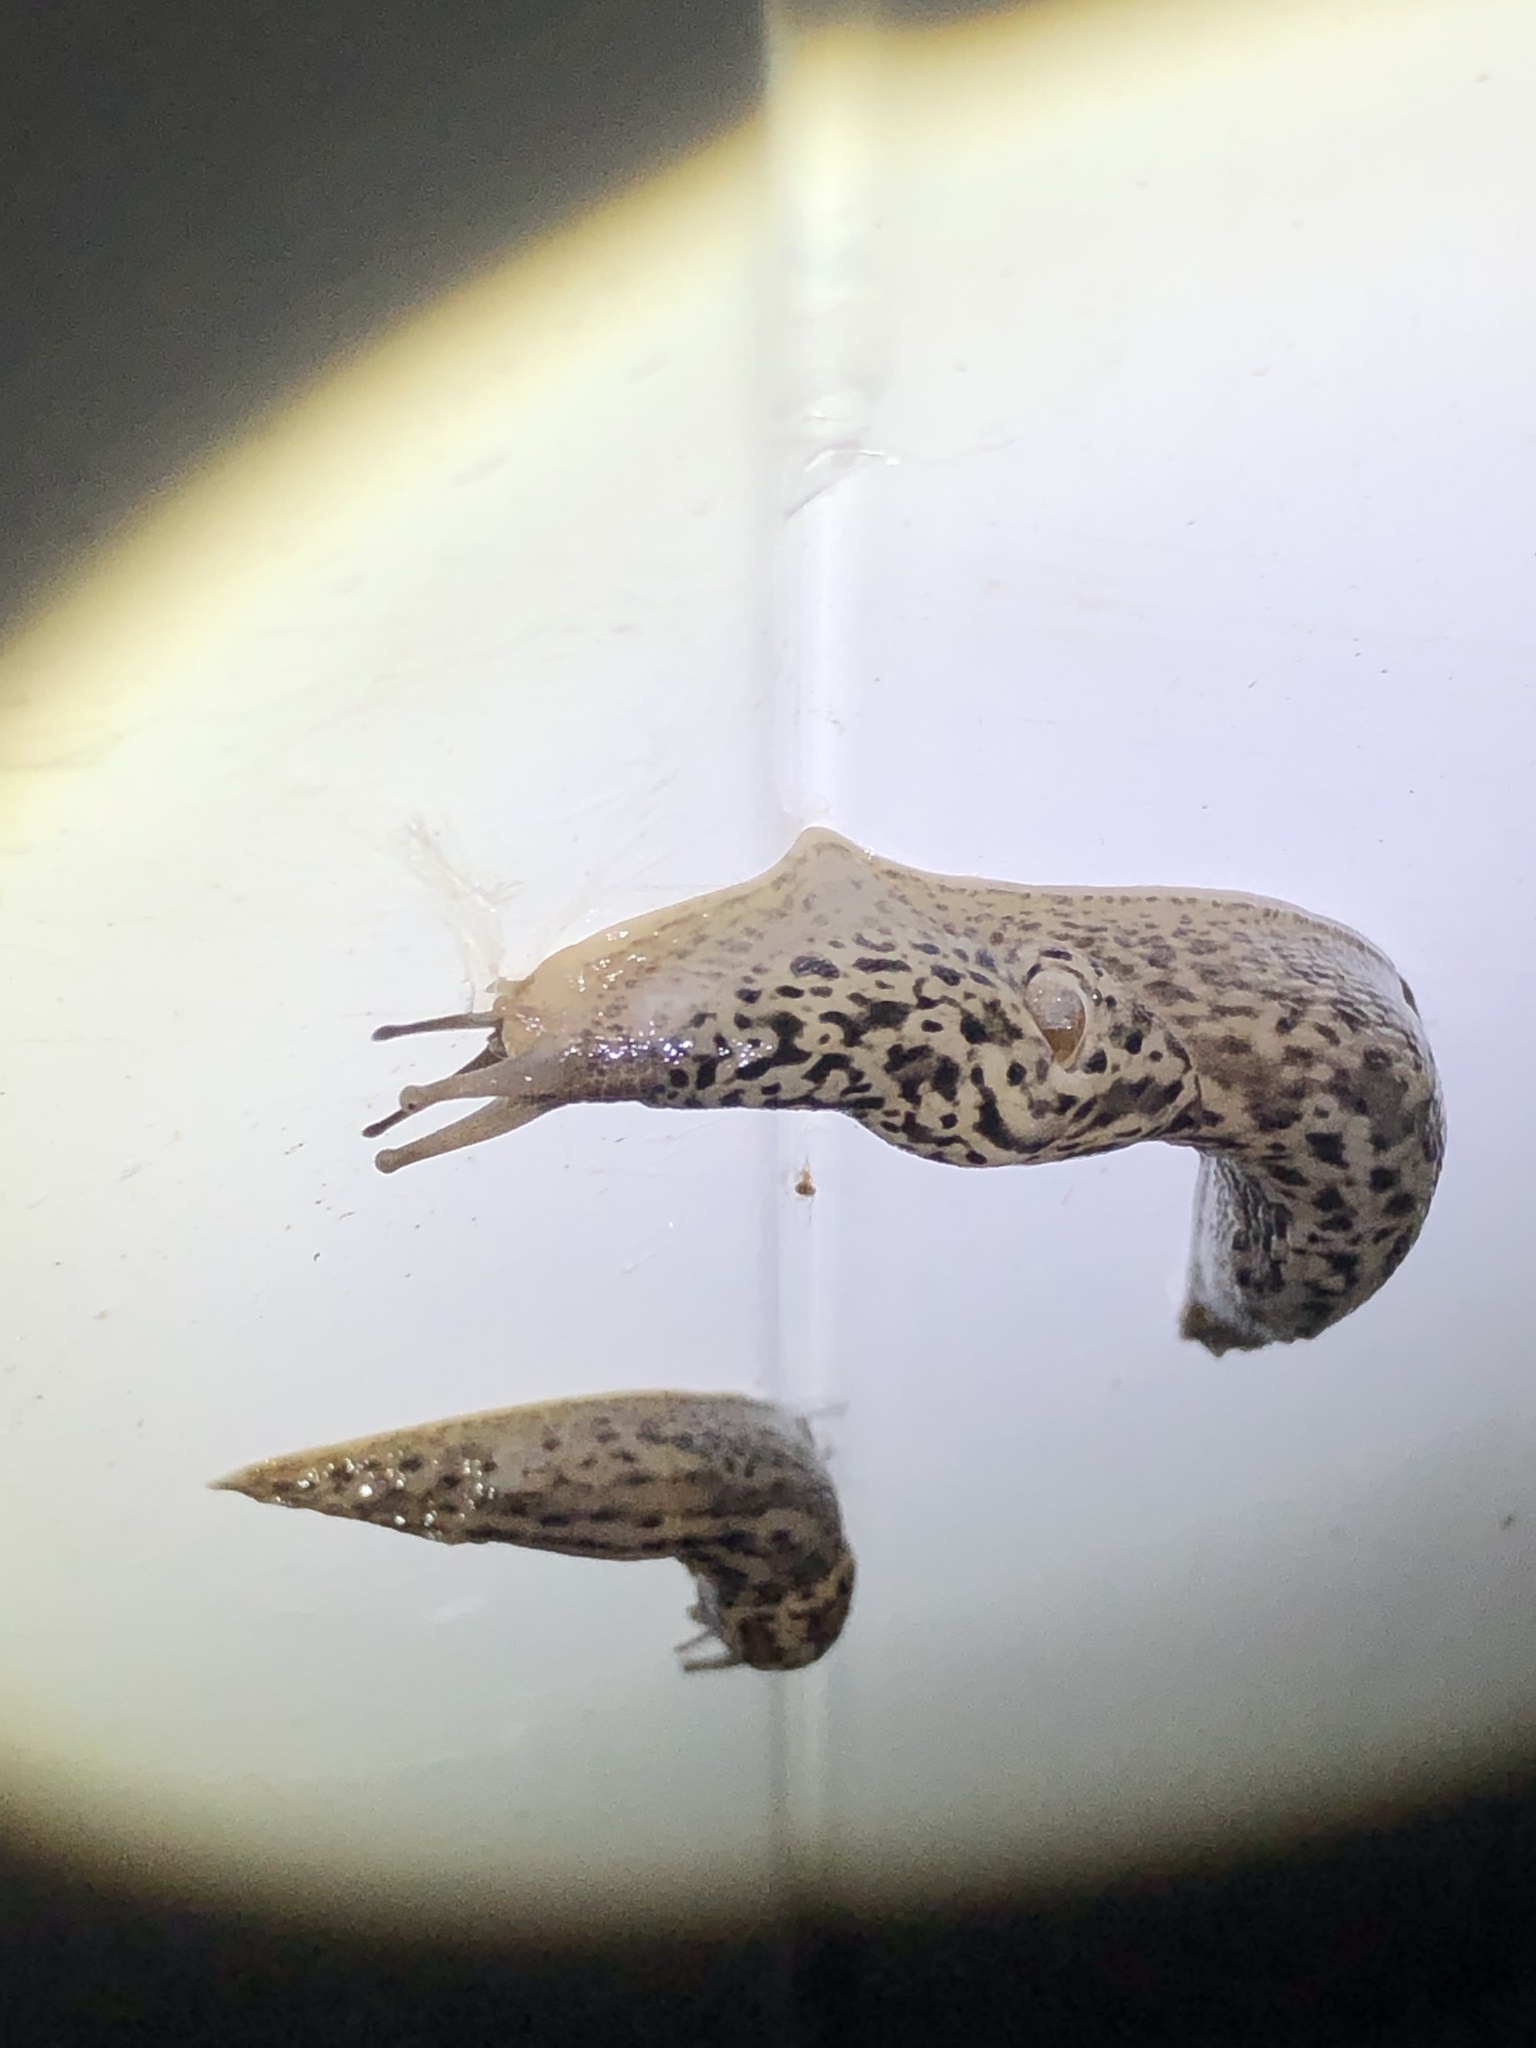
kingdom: Animalia
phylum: Mollusca
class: Gastropoda
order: Stylommatophora
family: Limacidae
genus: Limax
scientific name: Limax maximus
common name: Great grey slug
